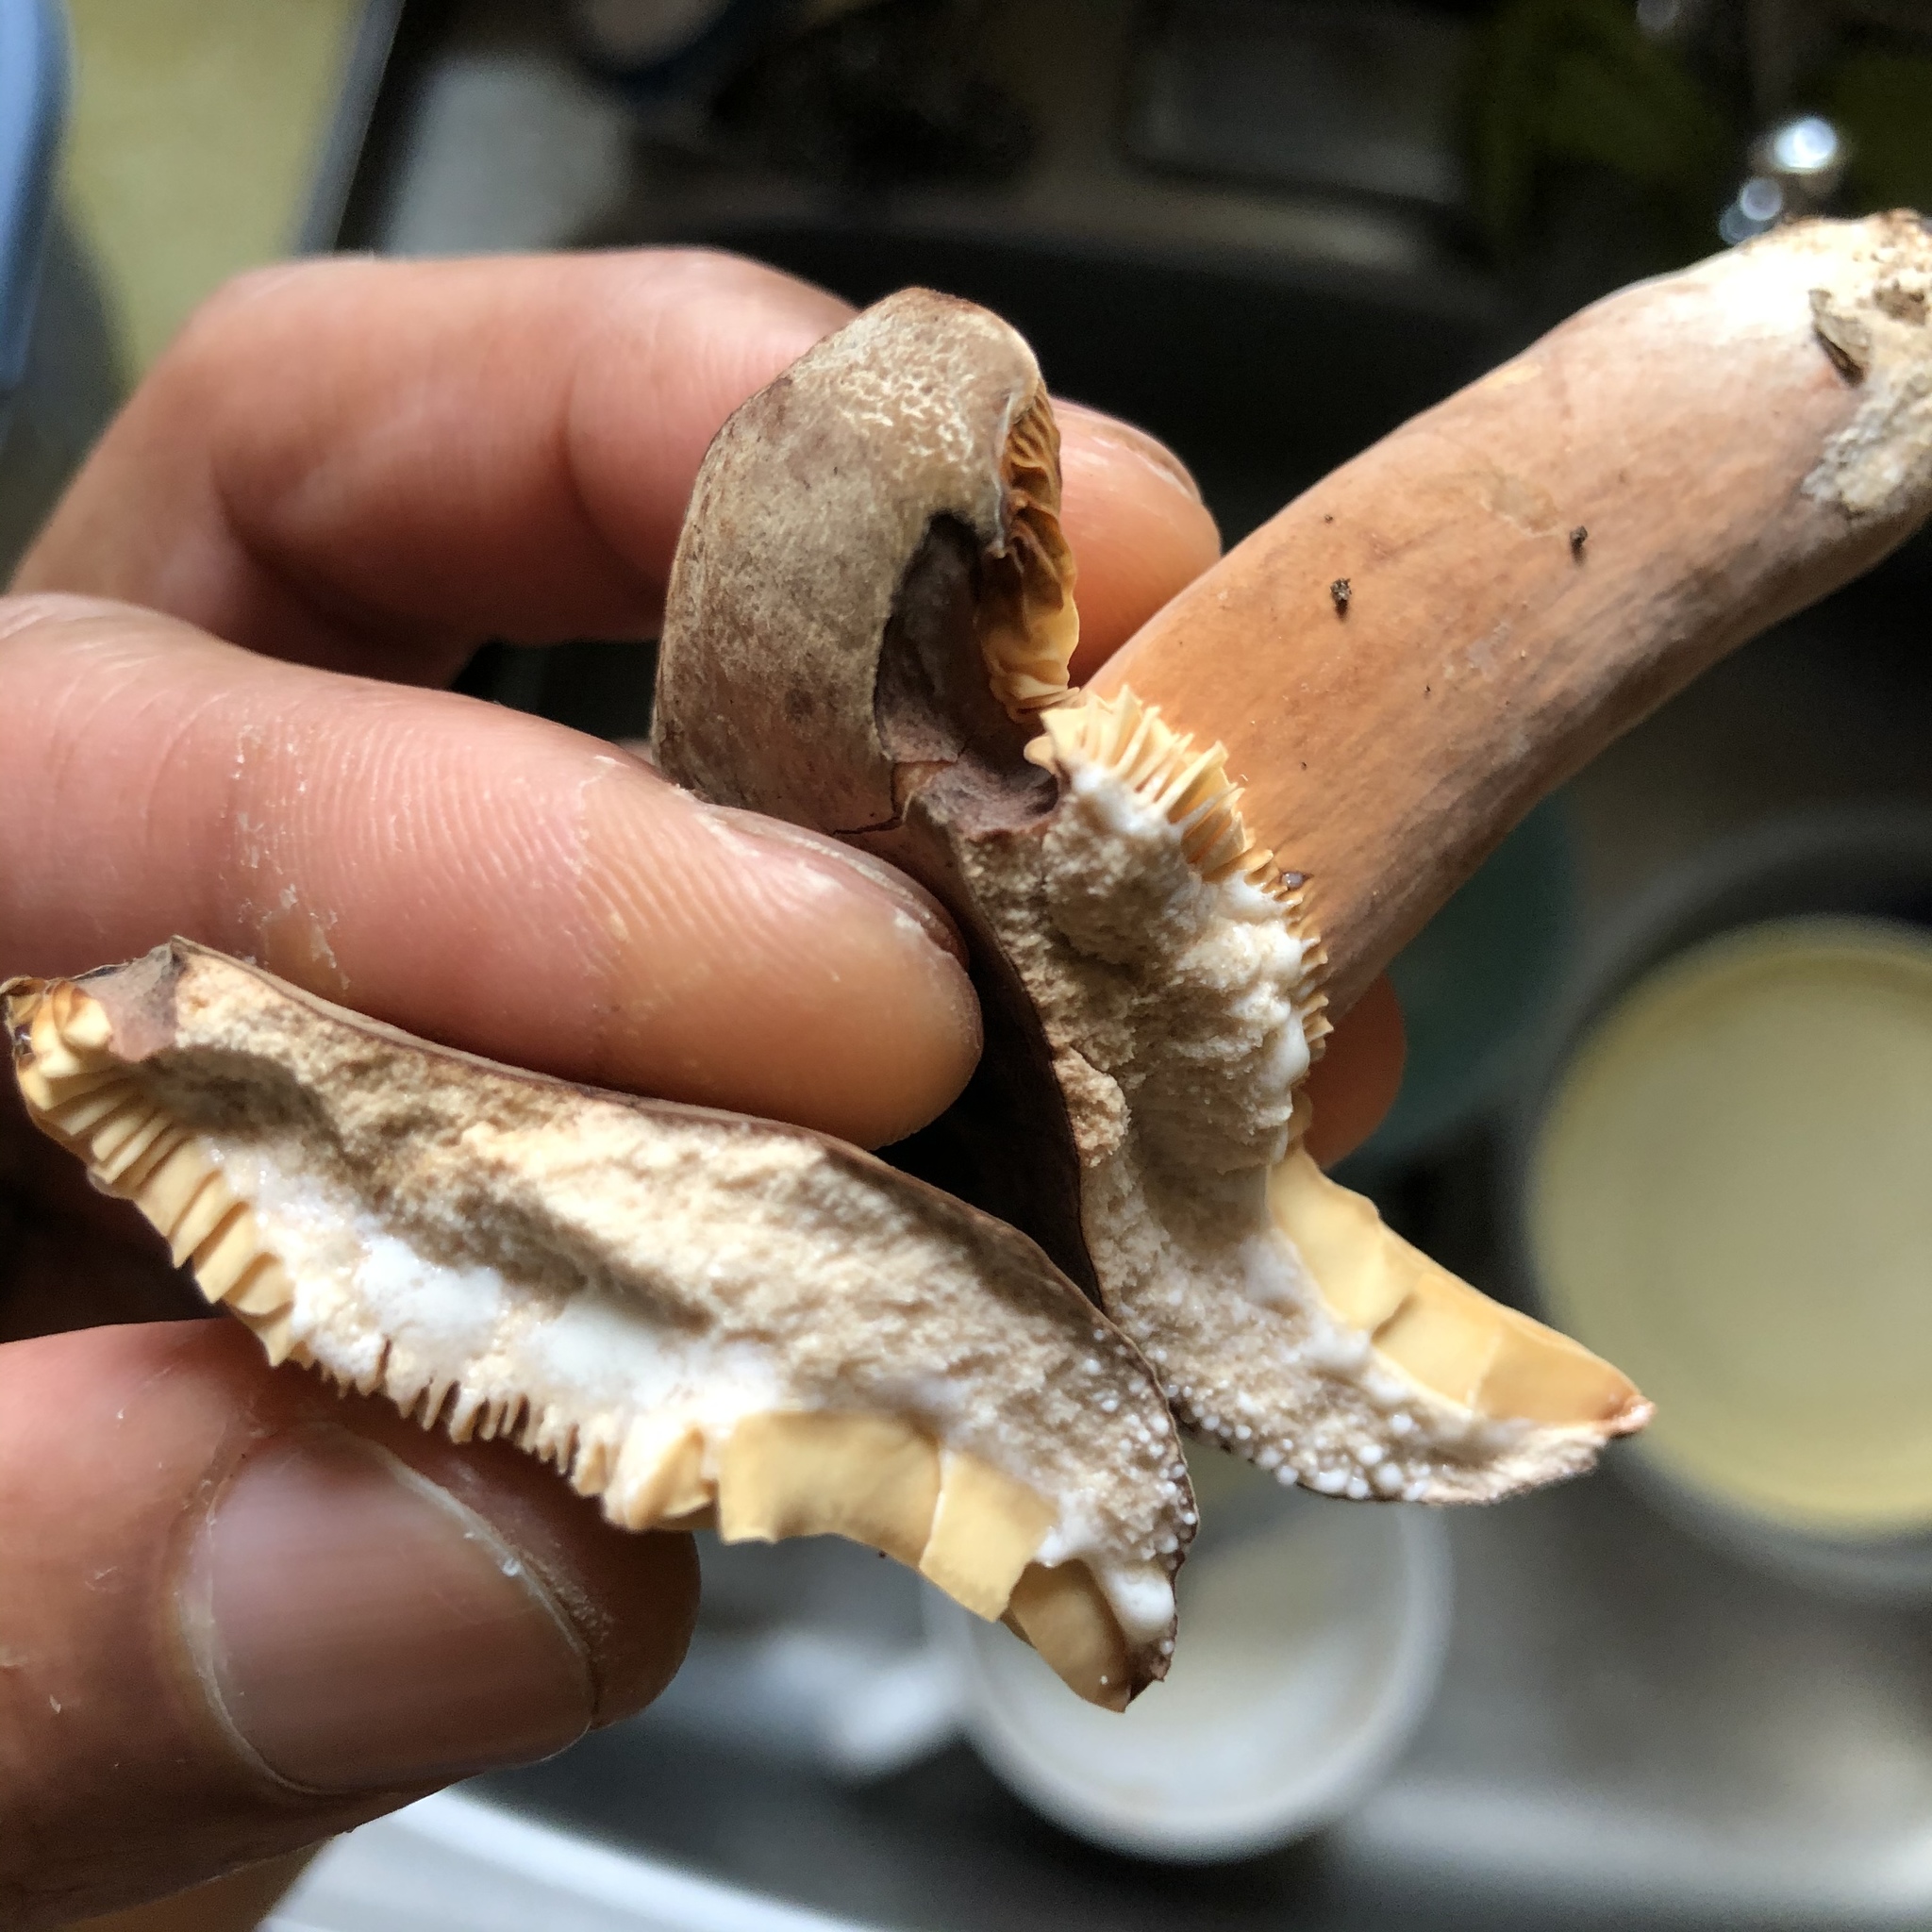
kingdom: Fungi
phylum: Basidiomycota
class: Agaricomycetes
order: Russulales
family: Russulaceae
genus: Lactarius
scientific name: Lactarius corrugis
